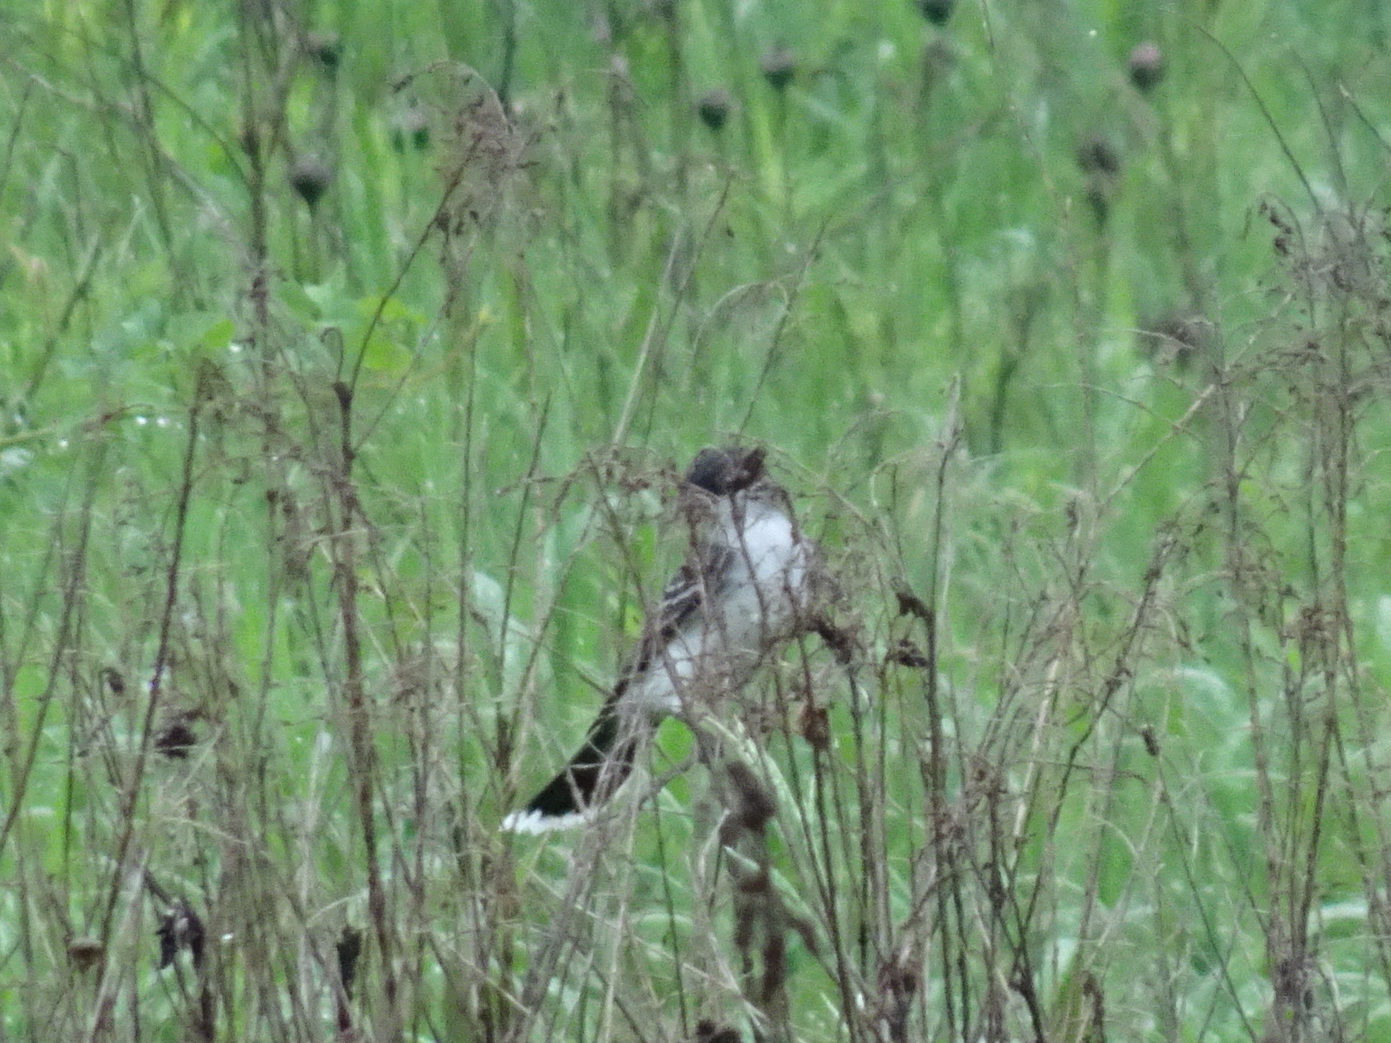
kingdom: Animalia
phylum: Chordata
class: Aves
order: Passeriformes
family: Tyrannidae
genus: Tyrannus
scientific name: Tyrannus tyrannus
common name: Eastern kingbird
